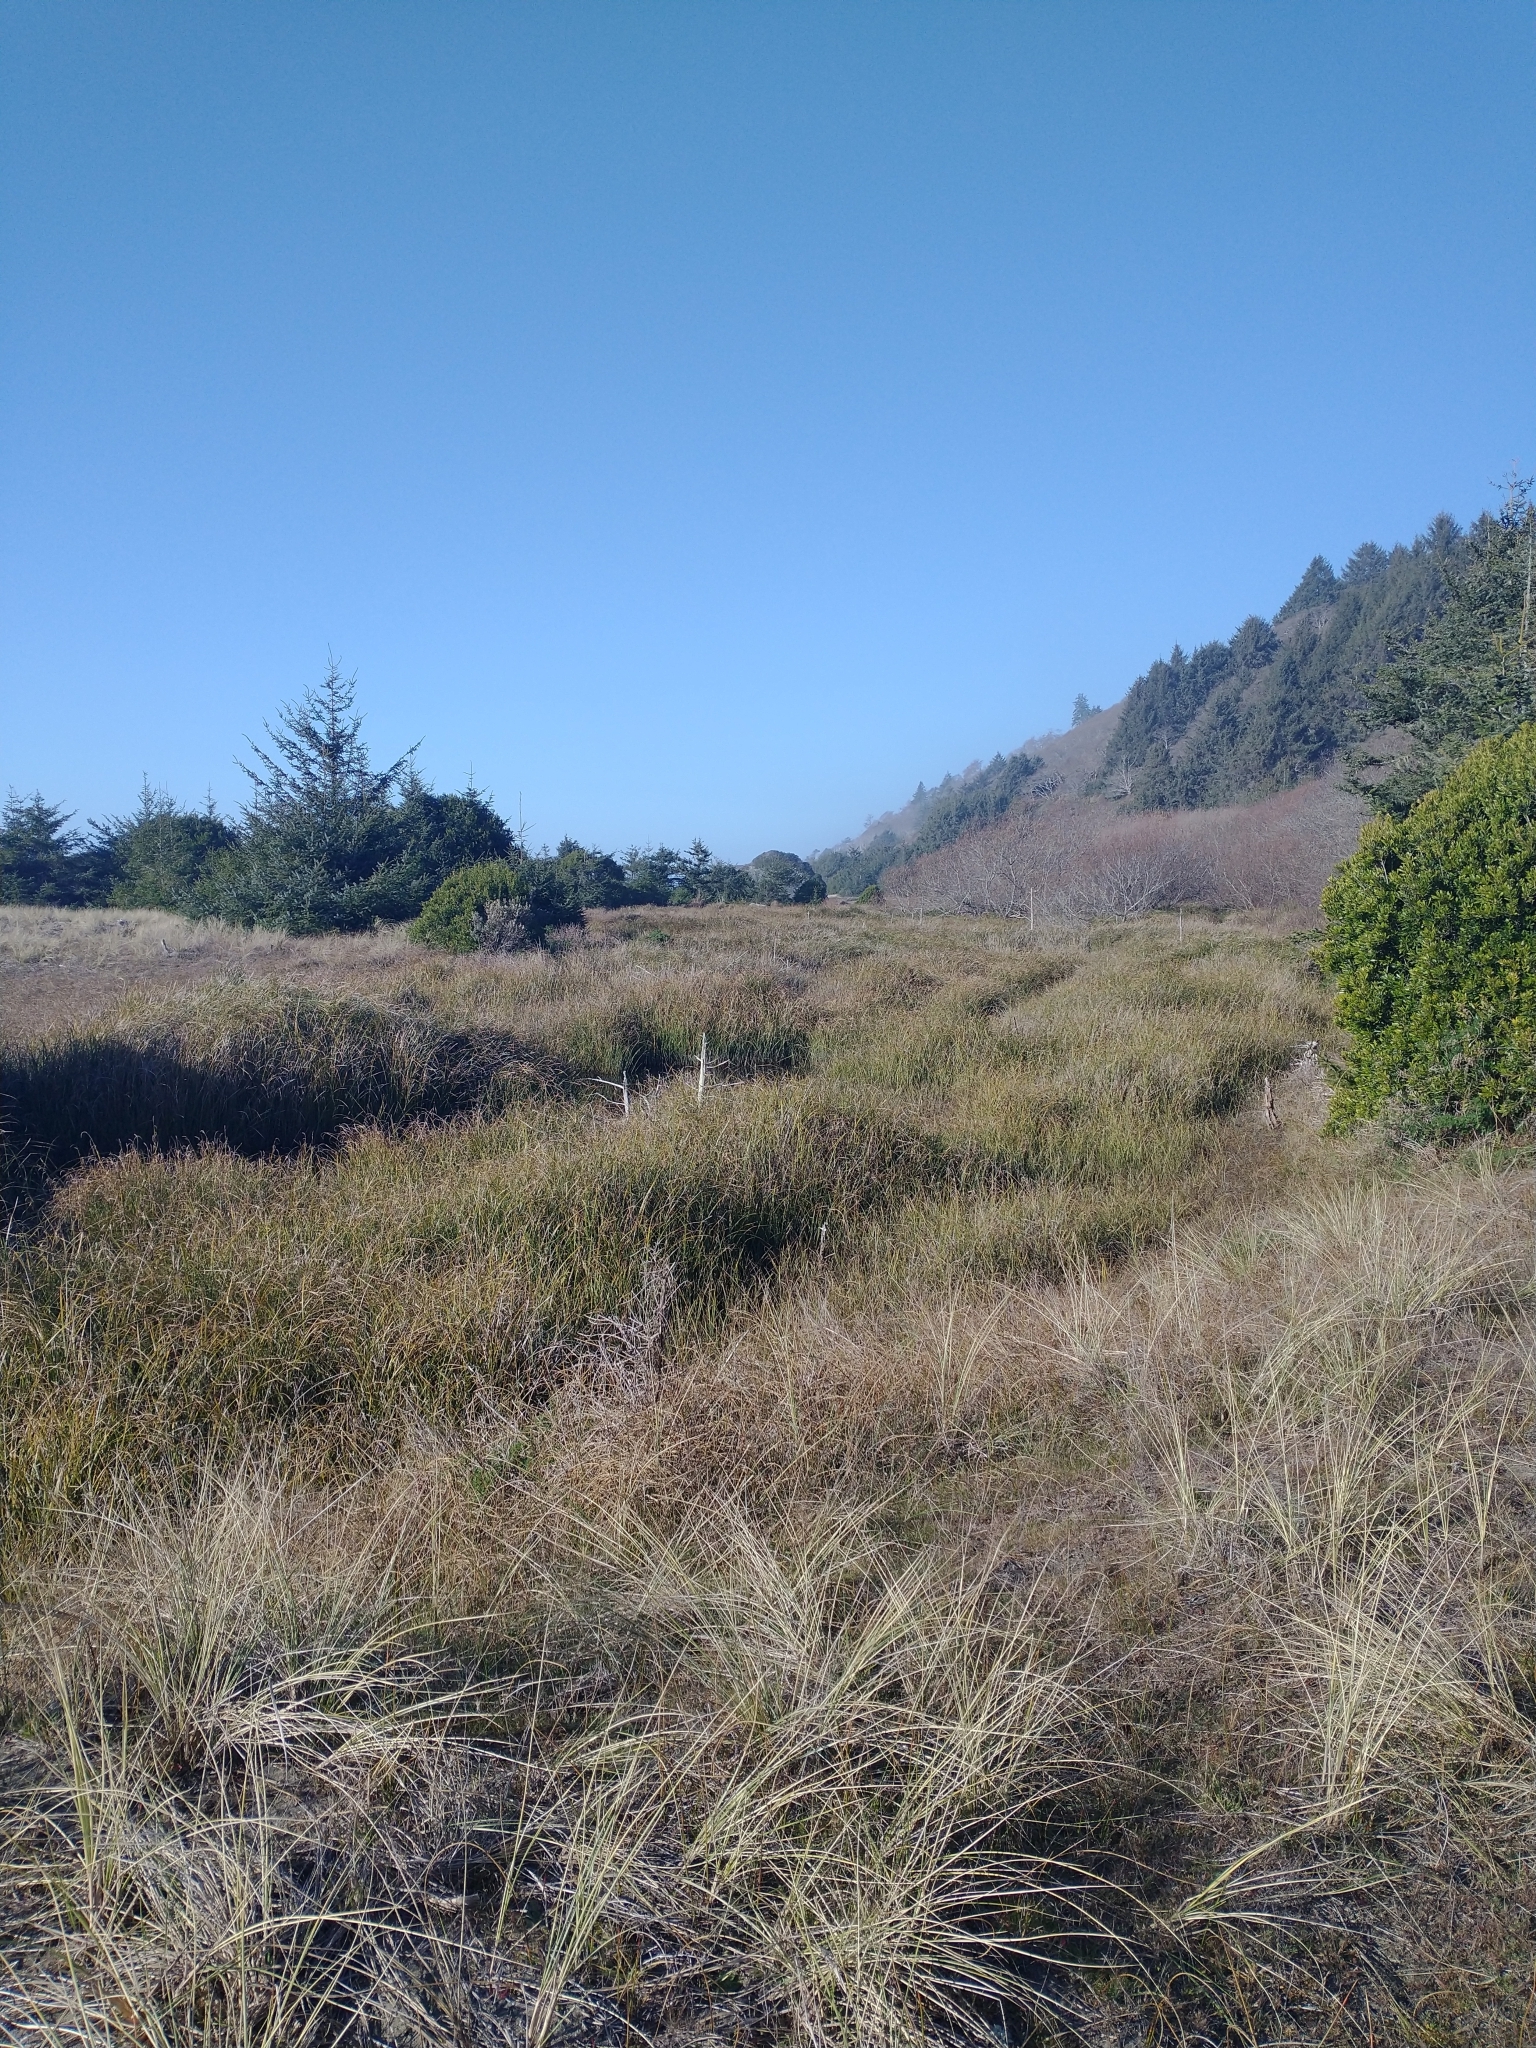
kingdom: Plantae
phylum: Tracheophyta
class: Pinopsida
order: Pinales
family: Pinaceae
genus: Picea
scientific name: Picea sitchensis
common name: Sitka spruce
